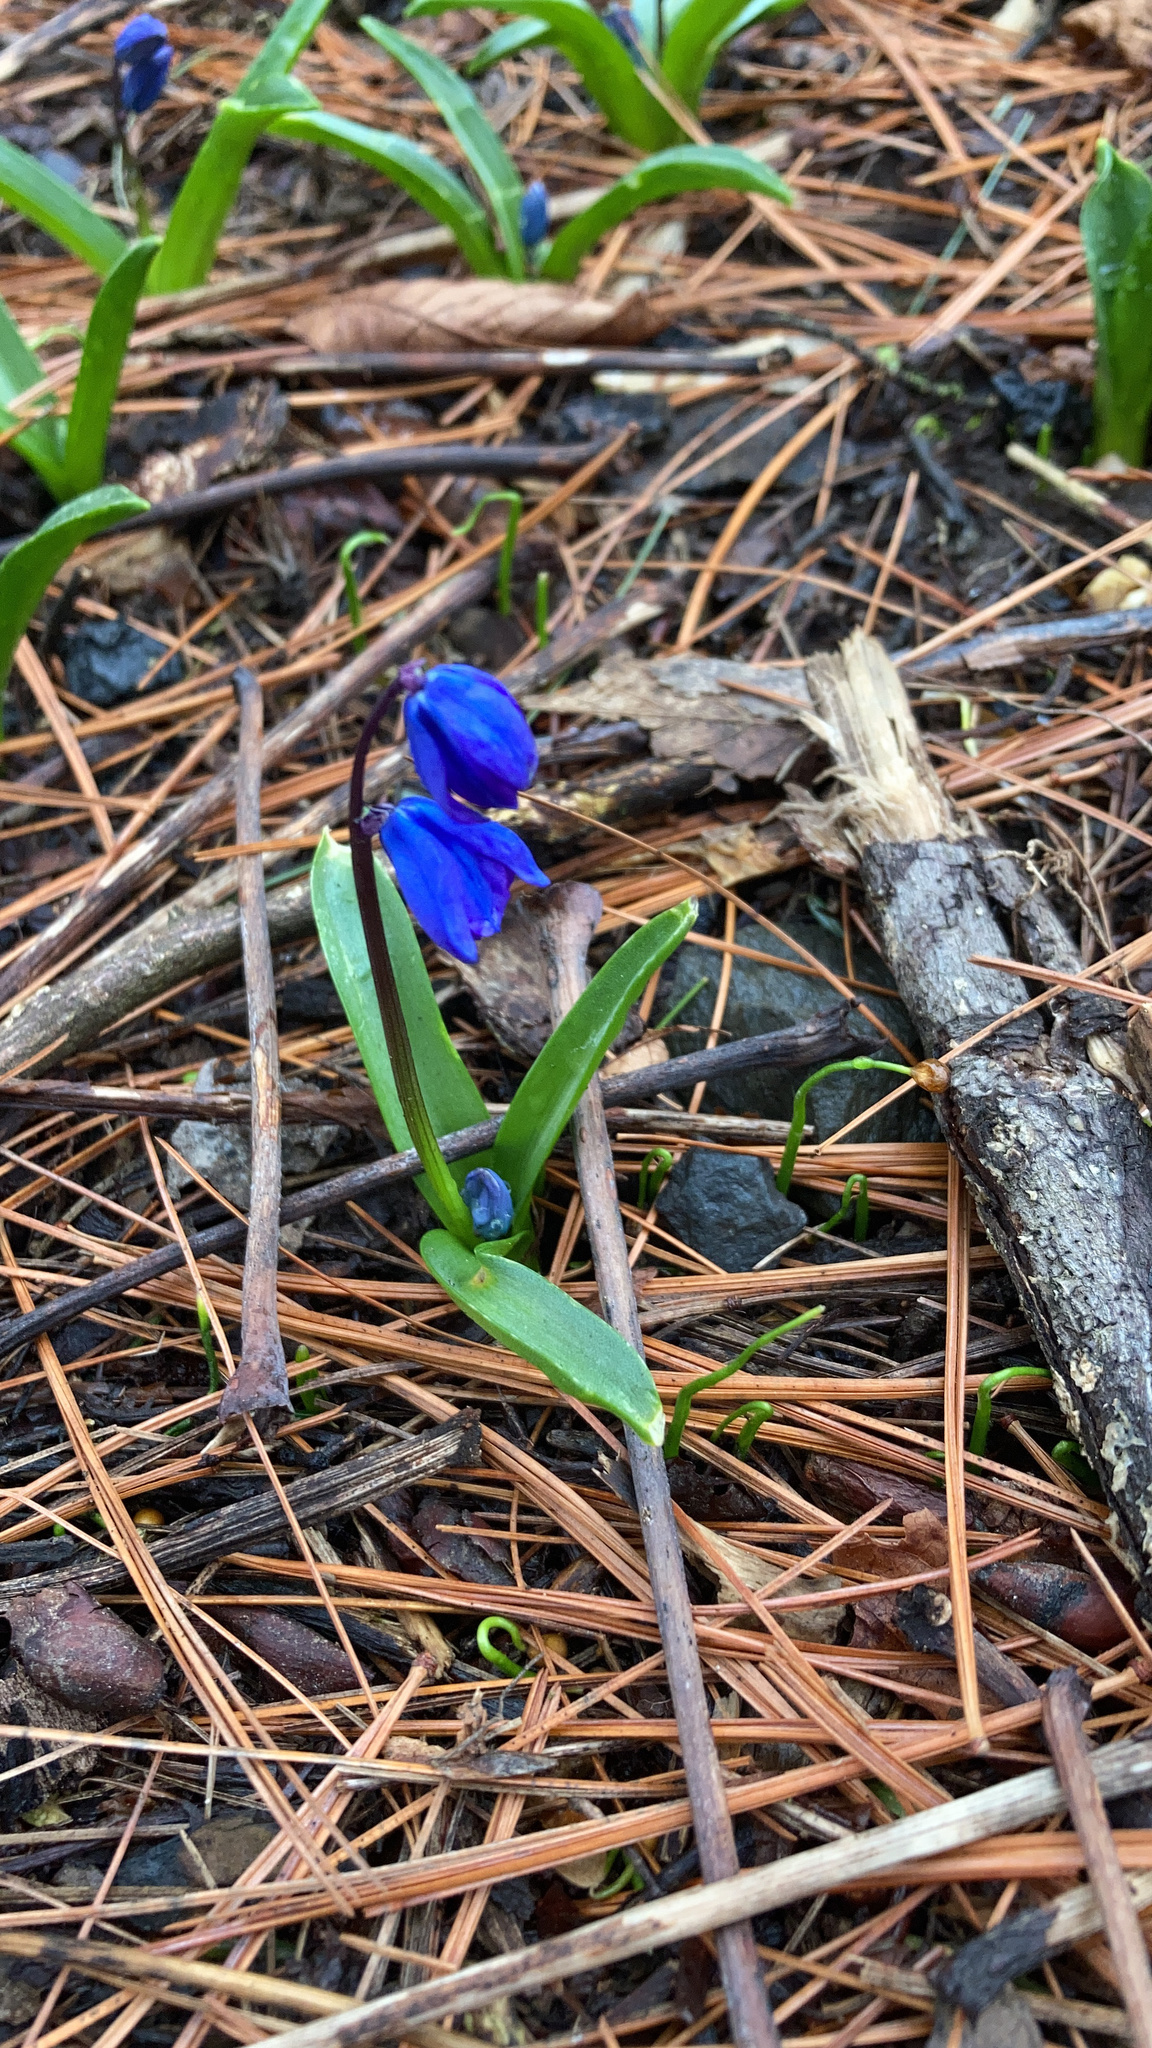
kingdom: Plantae
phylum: Tracheophyta
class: Liliopsida
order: Asparagales
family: Asparagaceae
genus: Scilla
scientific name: Scilla siberica
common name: Siberian squill
